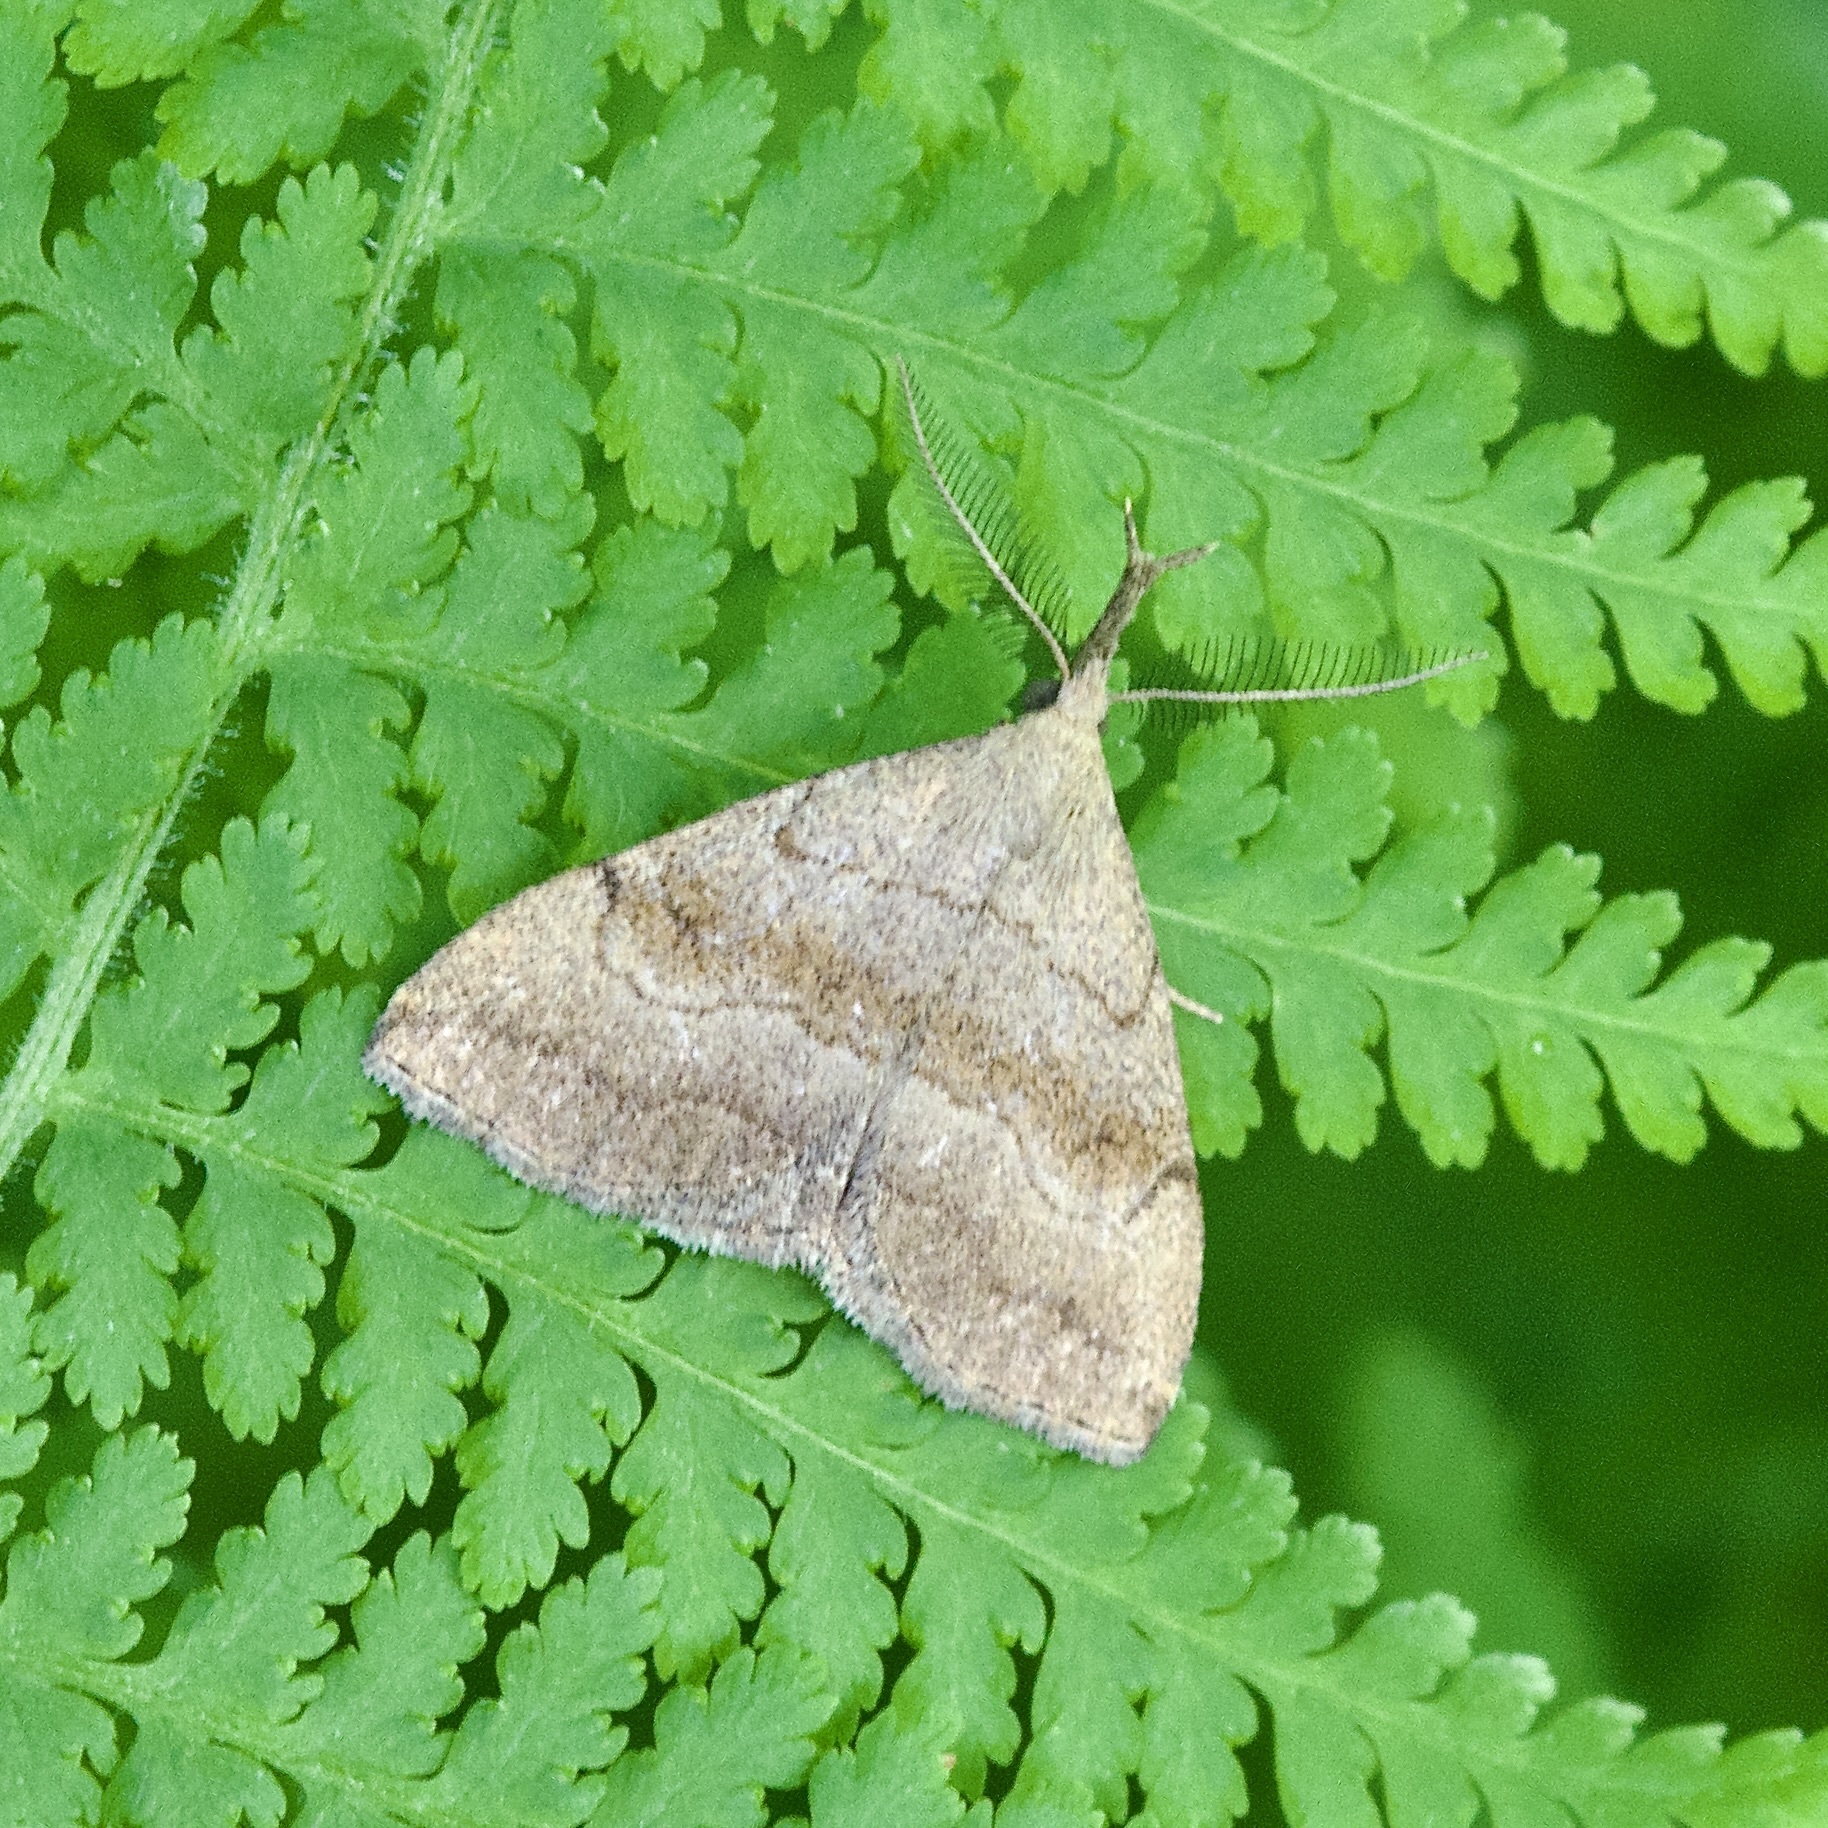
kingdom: Animalia
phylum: Arthropoda
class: Insecta
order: Lepidoptera
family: Erebidae
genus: Phalaenostola
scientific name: Phalaenostola metonalis
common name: Pale phalaenostola moth
